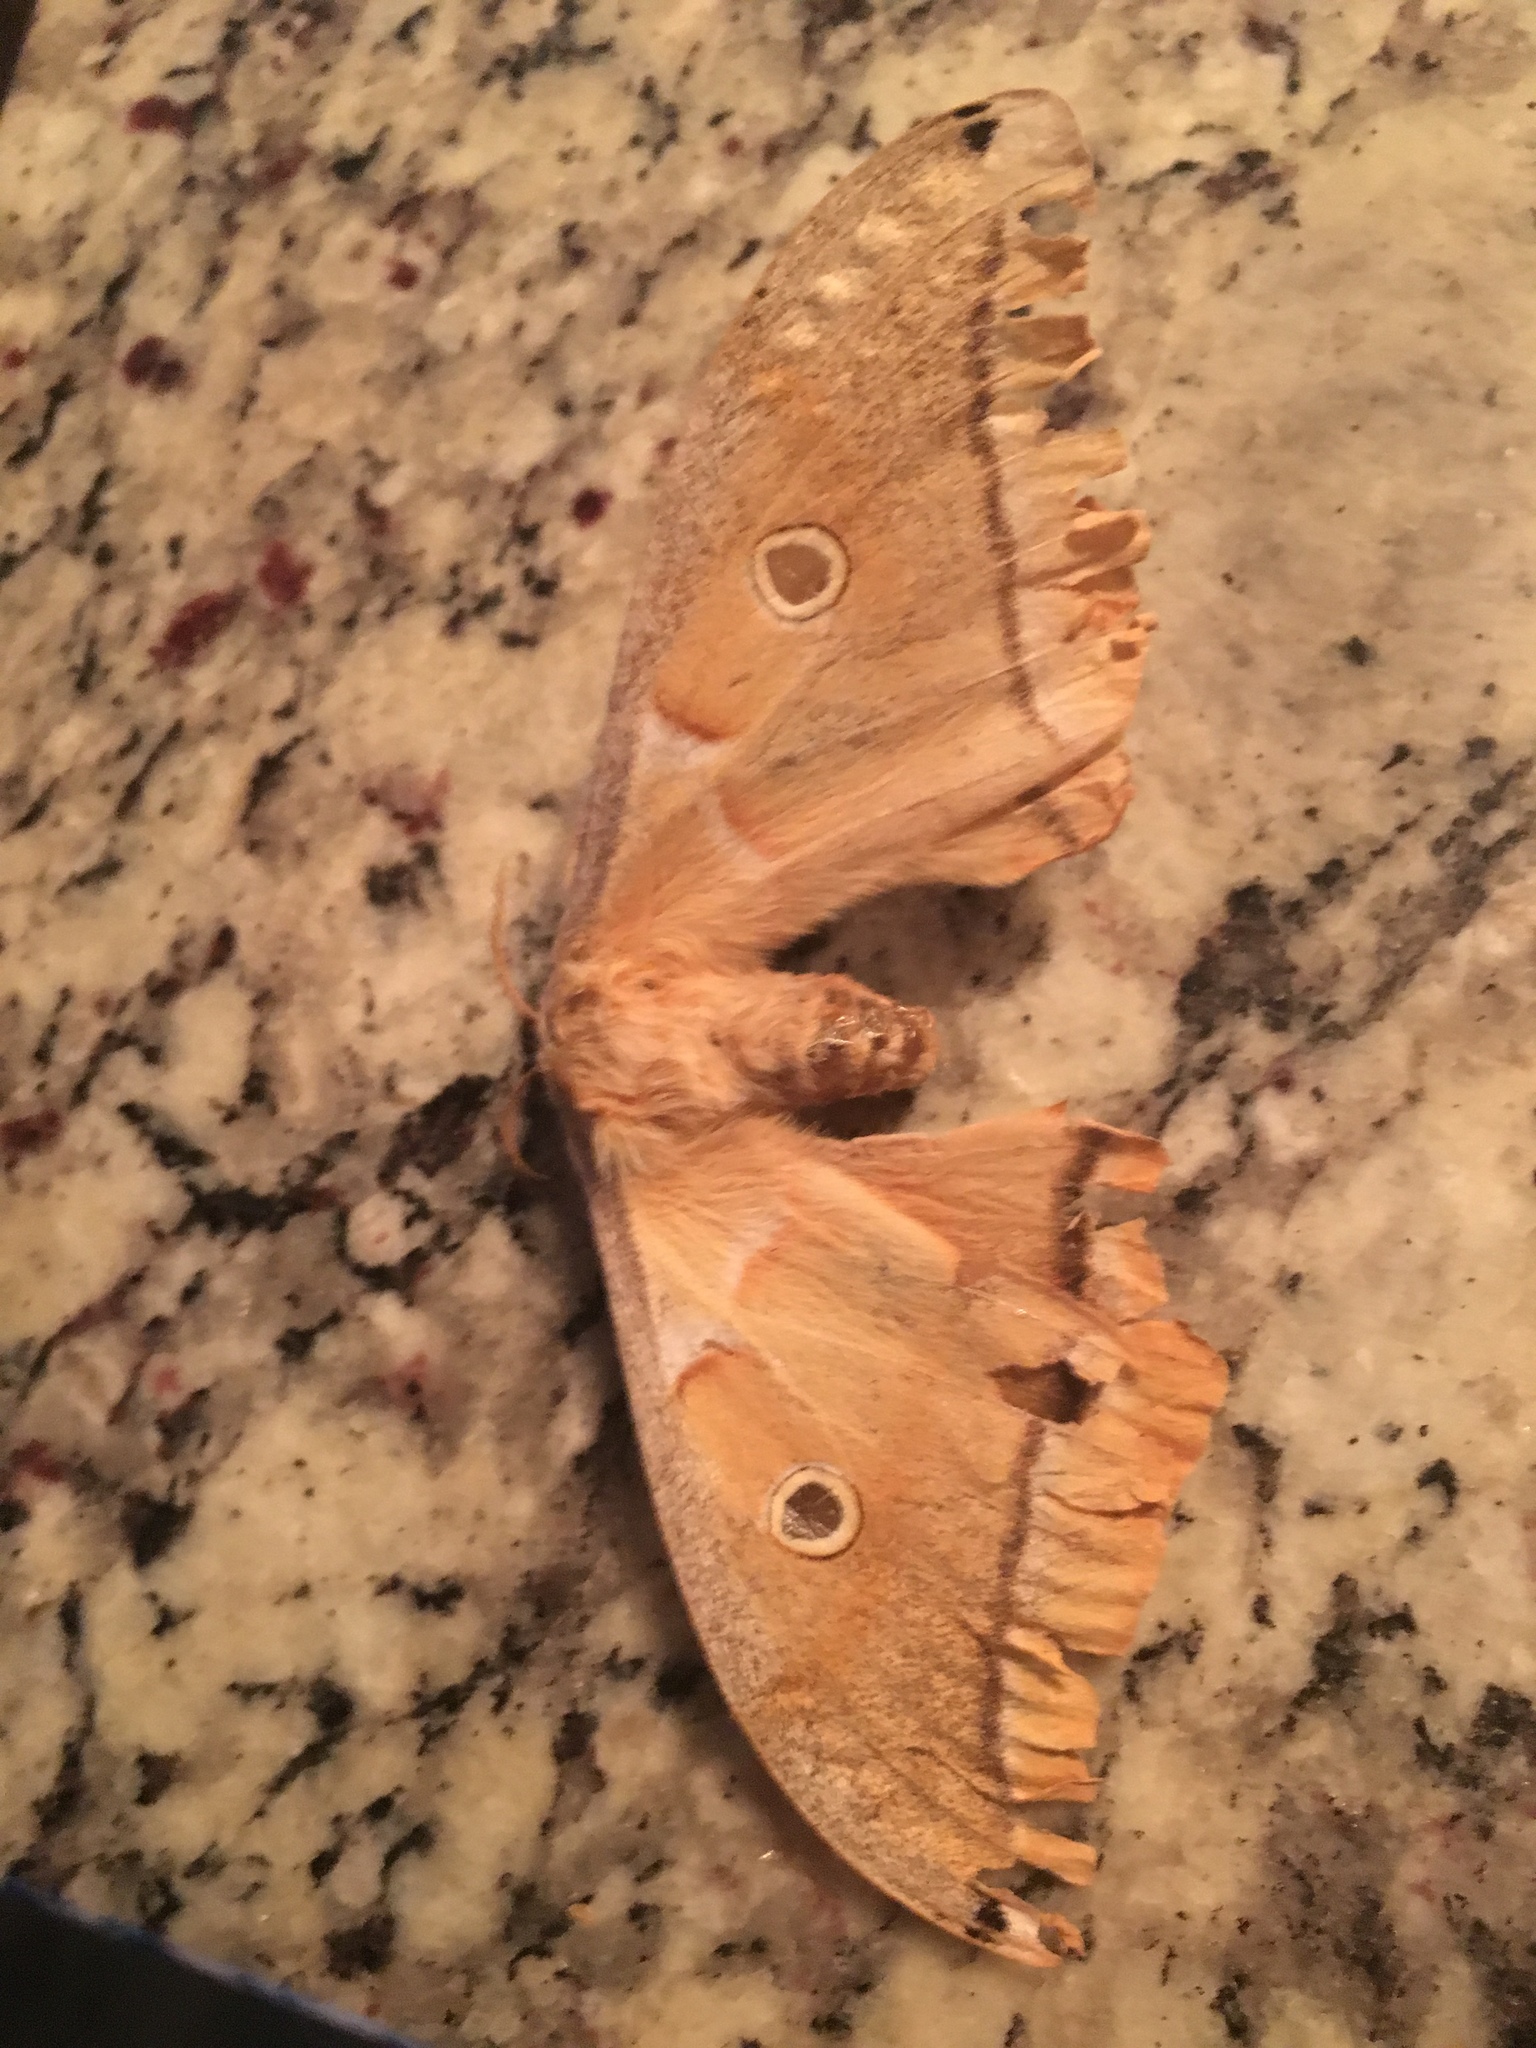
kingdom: Animalia
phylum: Arthropoda
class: Insecta
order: Lepidoptera
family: Saturniidae
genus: Antheraea
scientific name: Antheraea polyphemus
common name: Polyphemus moth
